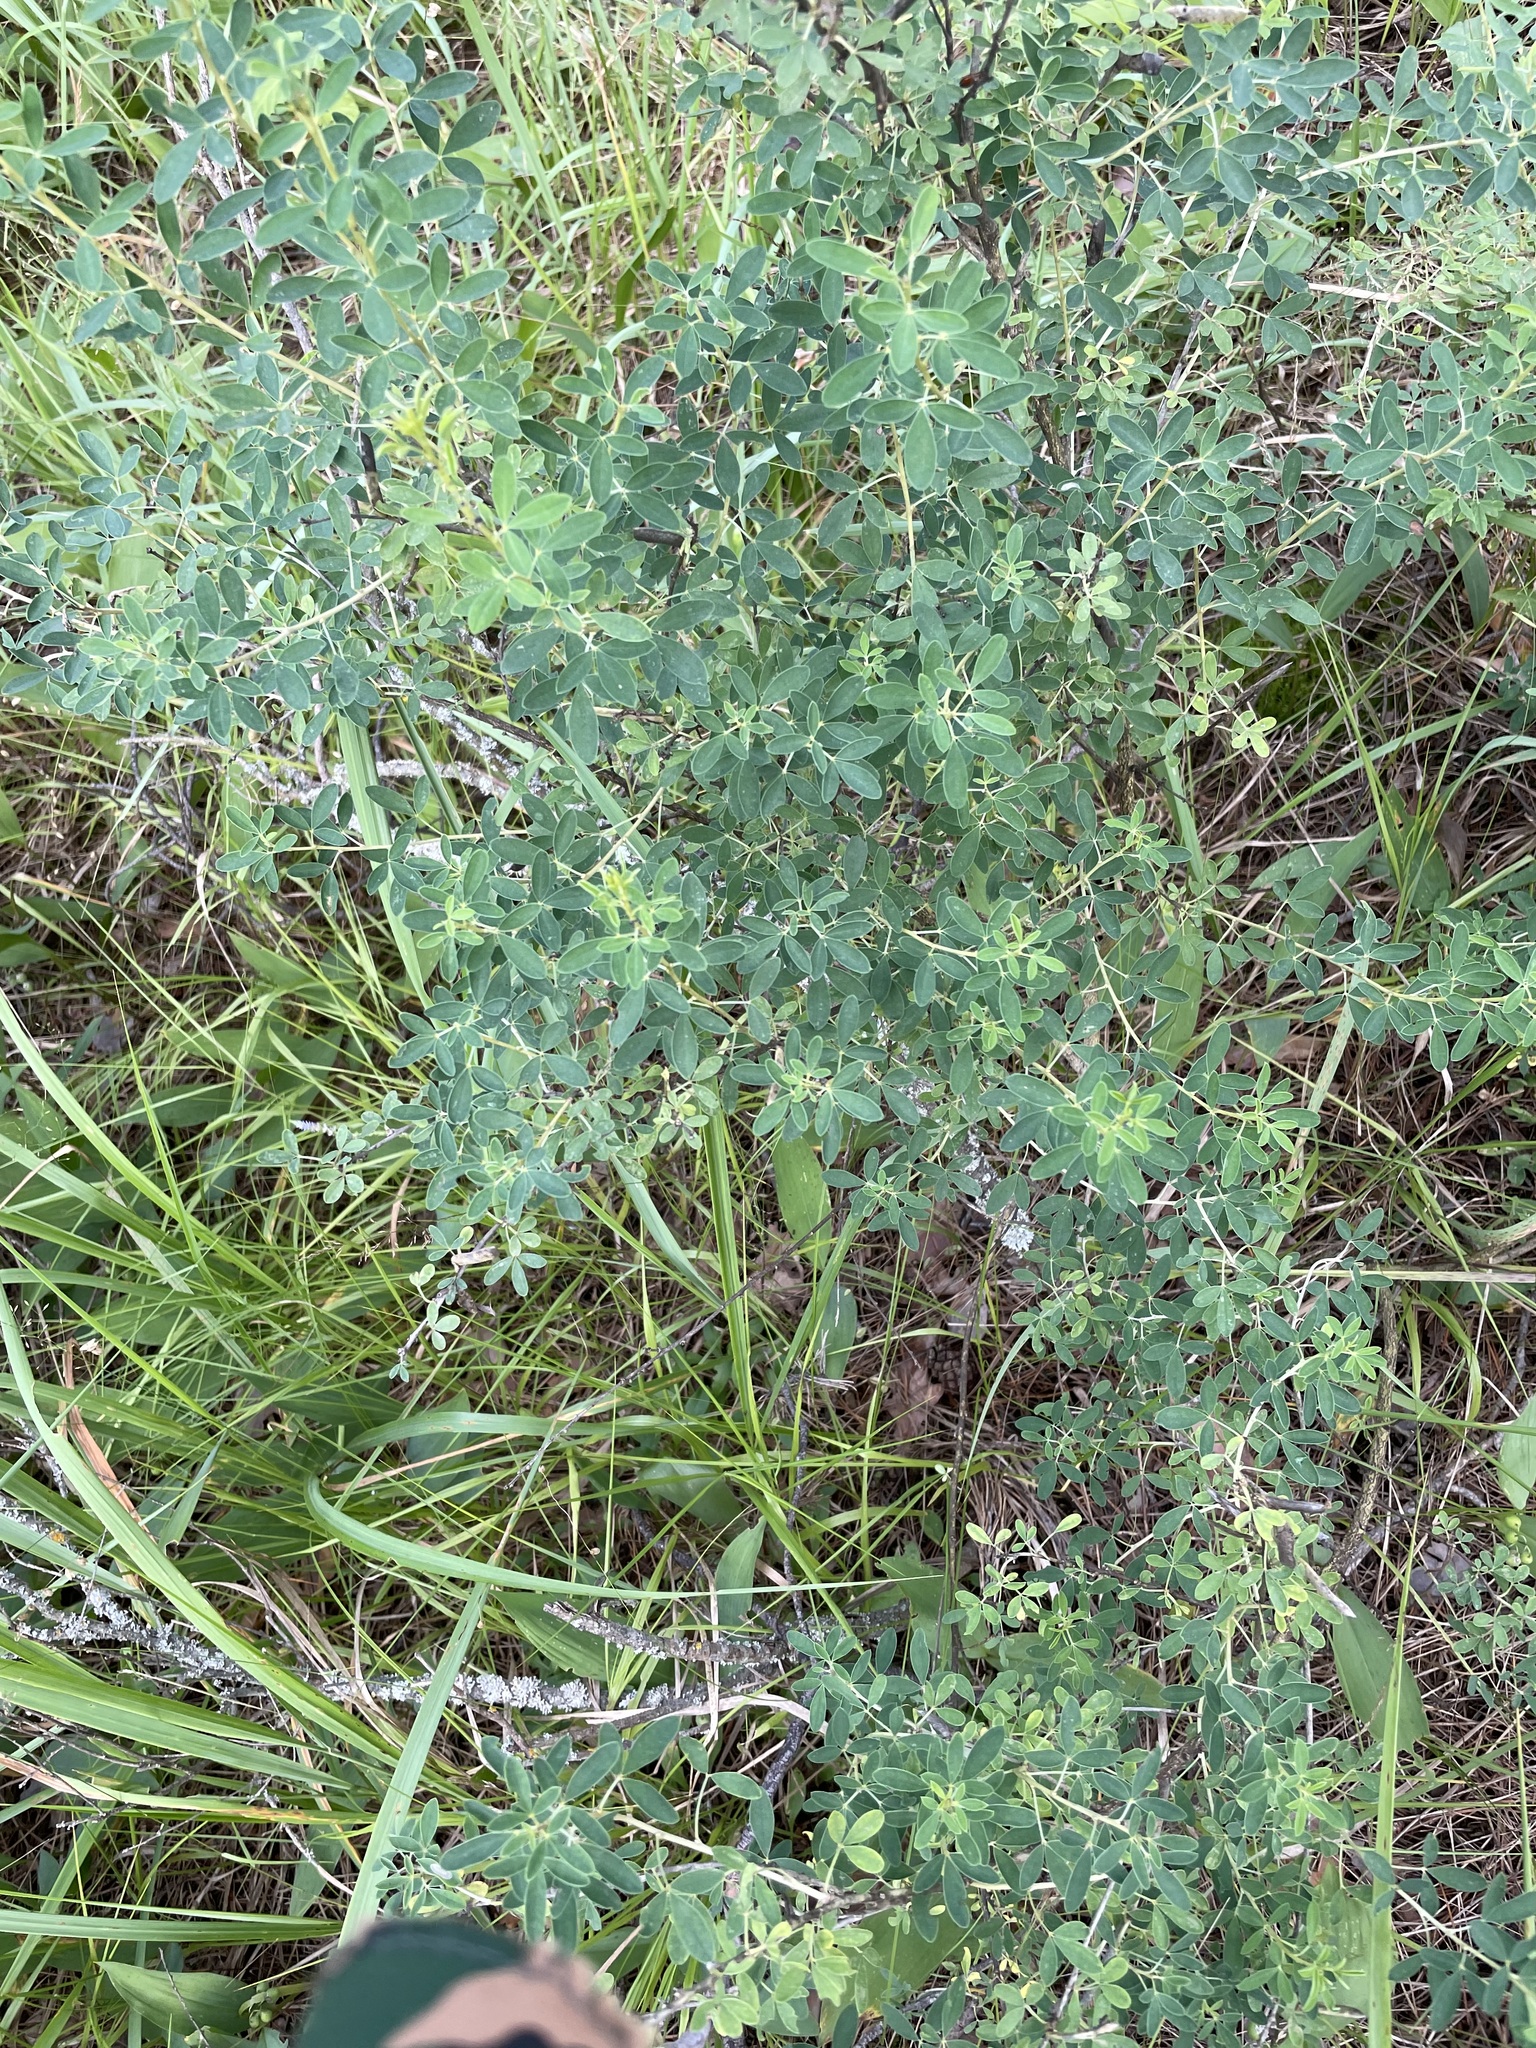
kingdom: Plantae
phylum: Tracheophyta
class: Magnoliopsida
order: Fabales
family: Fabaceae
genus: Chamaecytisus
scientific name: Chamaecytisus ruthenicus
